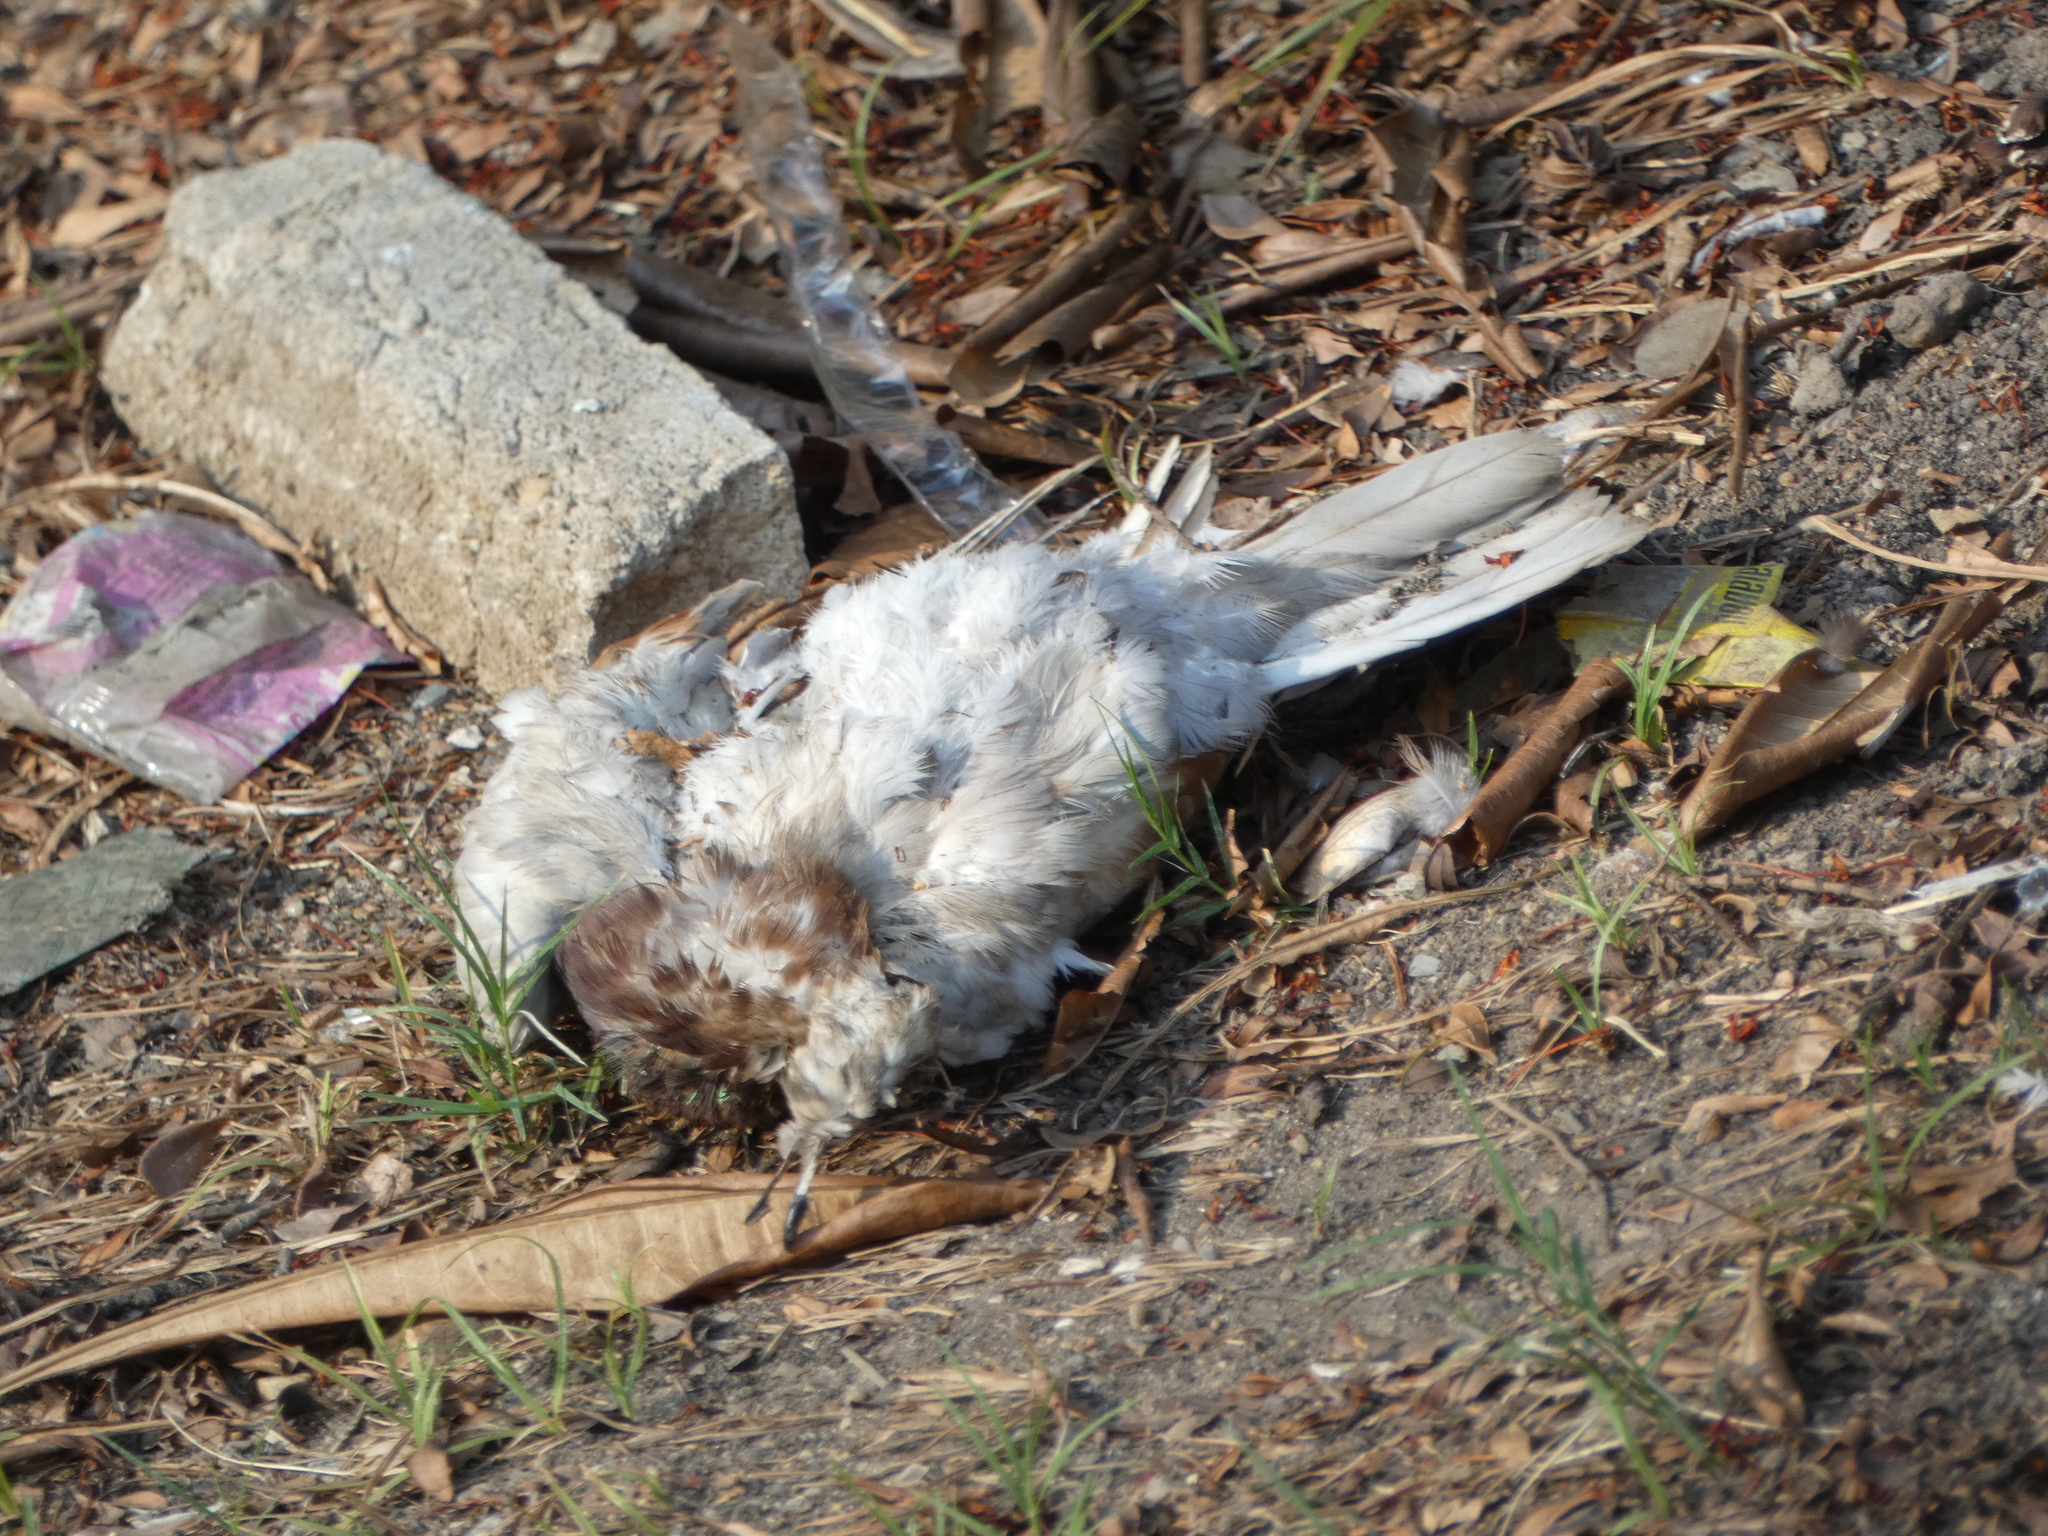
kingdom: Animalia
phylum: Chordata
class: Aves
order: Columbiformes
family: Columbidae
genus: Columba
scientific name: Columba livia
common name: Rock pigeon
